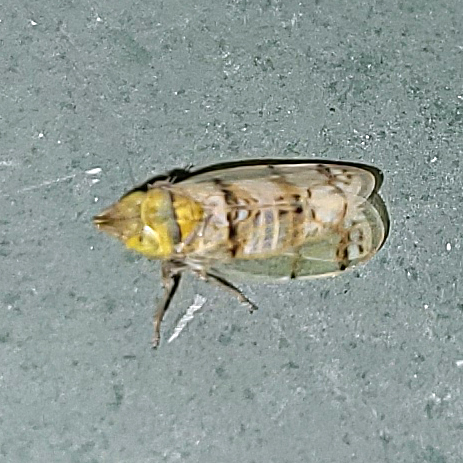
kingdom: Animalia
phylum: Arthropoda
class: Insecta
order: Hemiptera
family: Cicadellidae
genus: Japananus
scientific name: Japananus hyalinus
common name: The japanese maple leafhopper
